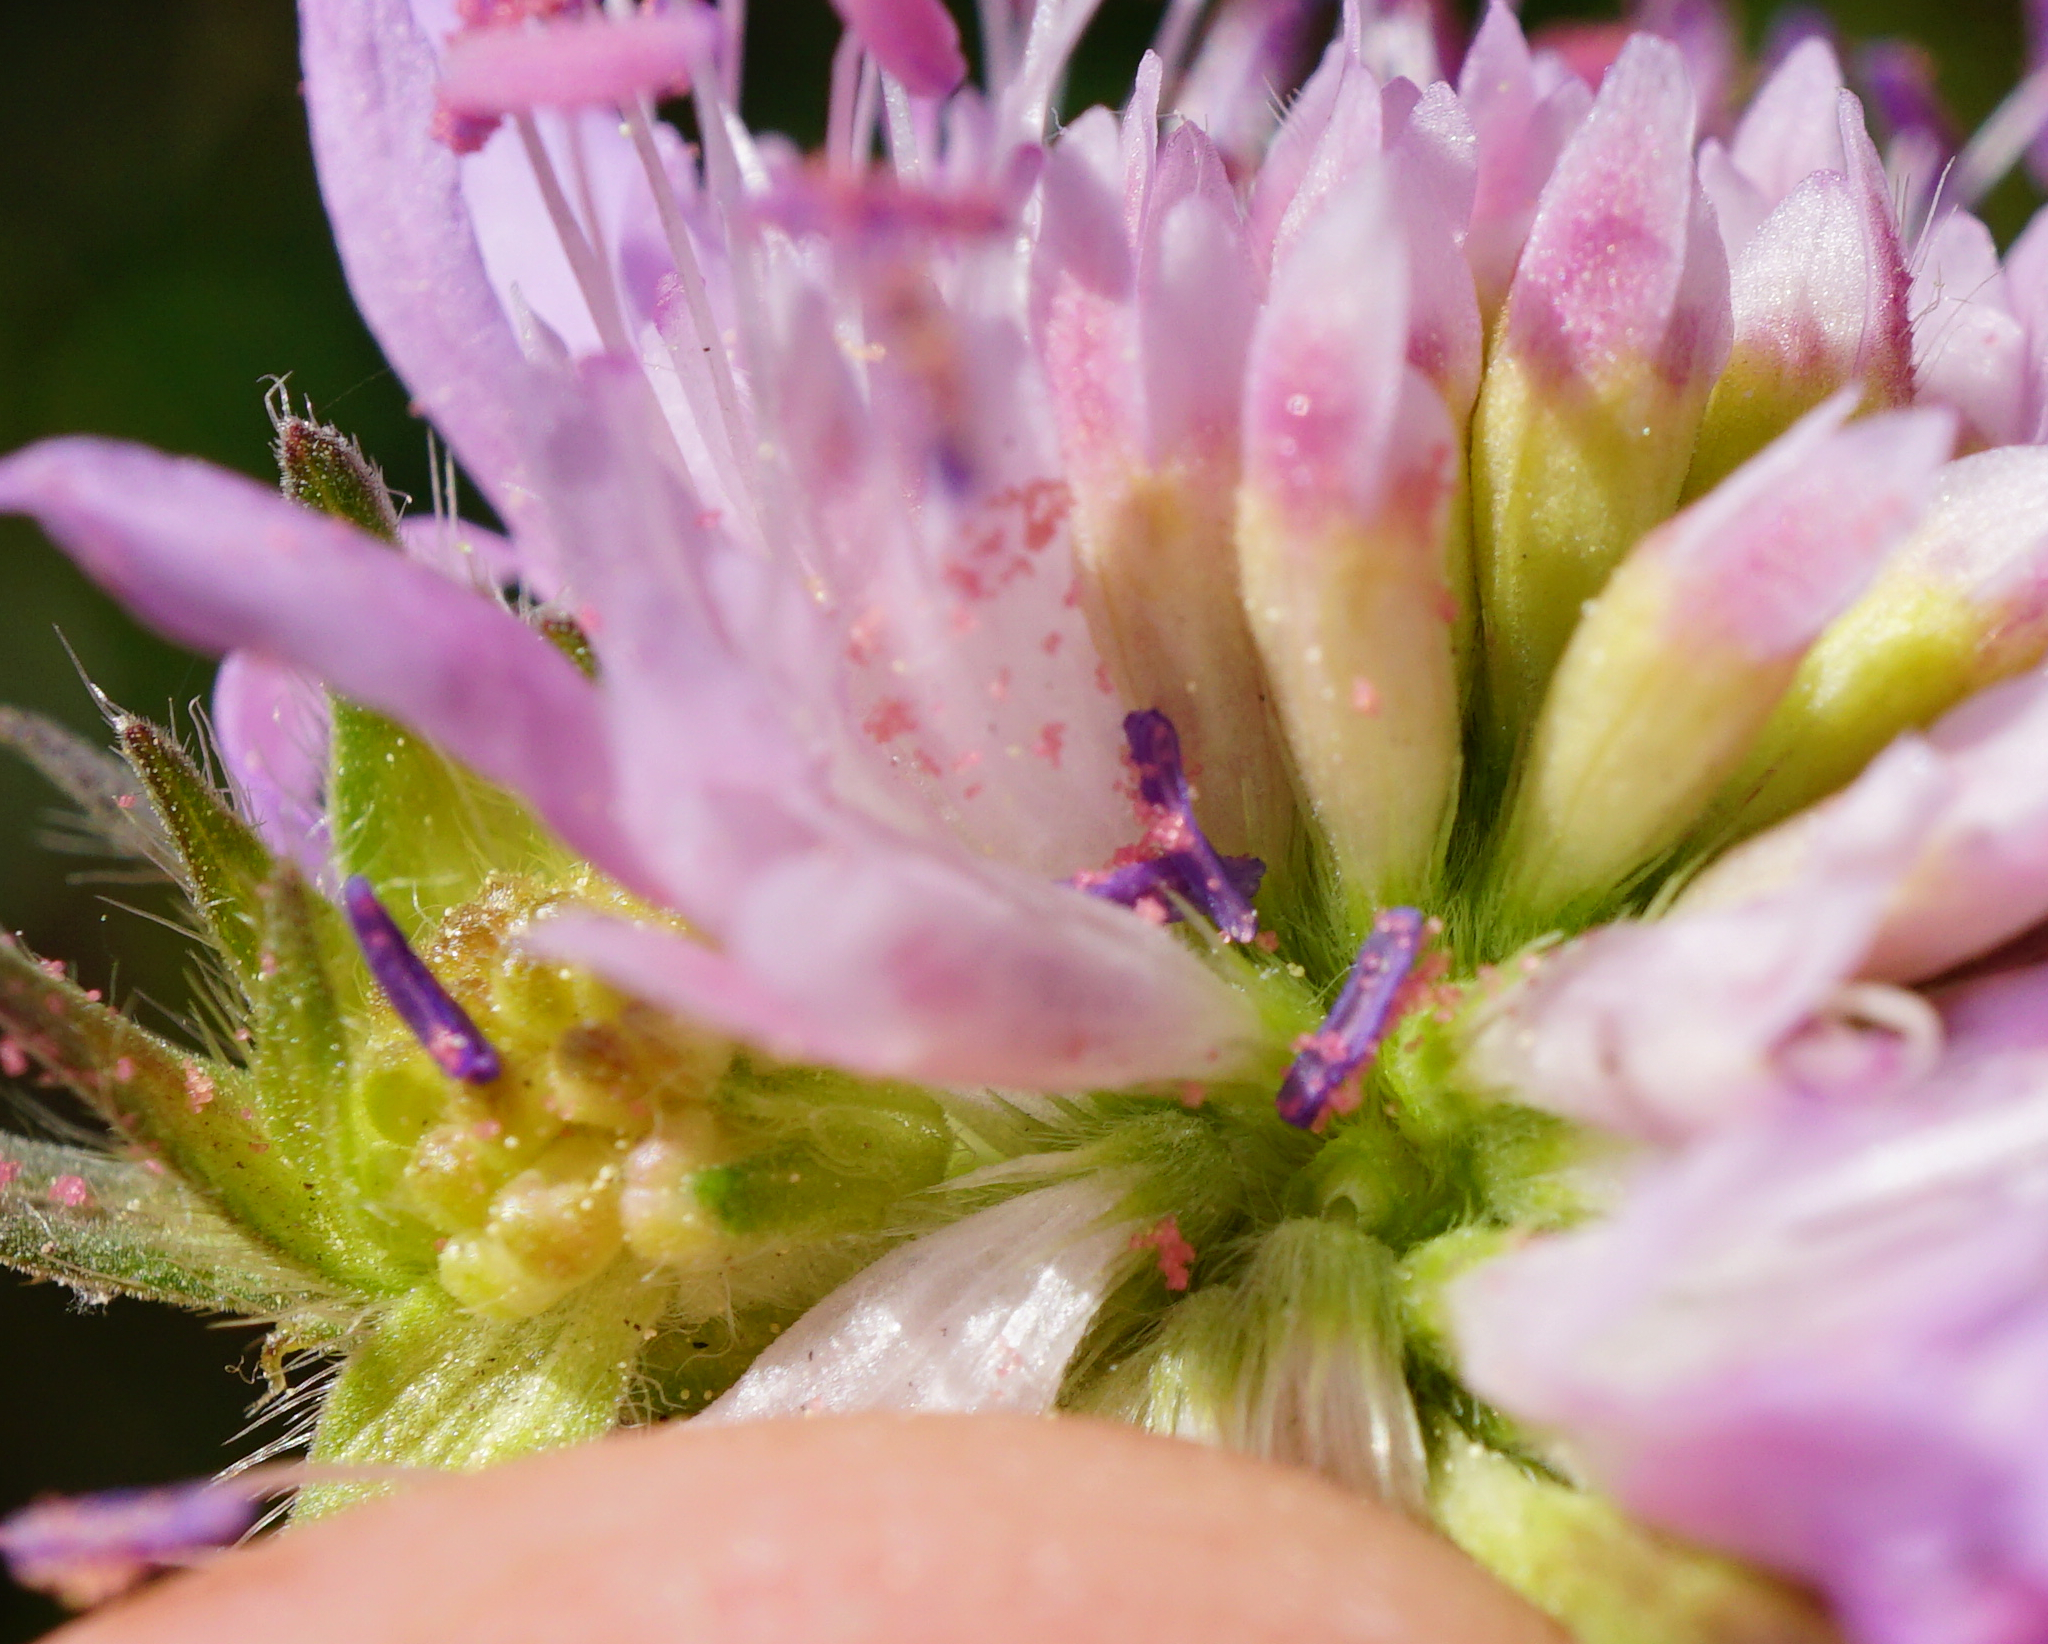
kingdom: Plantae
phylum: Tracheophyta
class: Magnoliopsida
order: Dipsacales
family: Caprifoliaceae
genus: Knautia
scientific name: Knautia arvensis
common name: Field scabiosa
